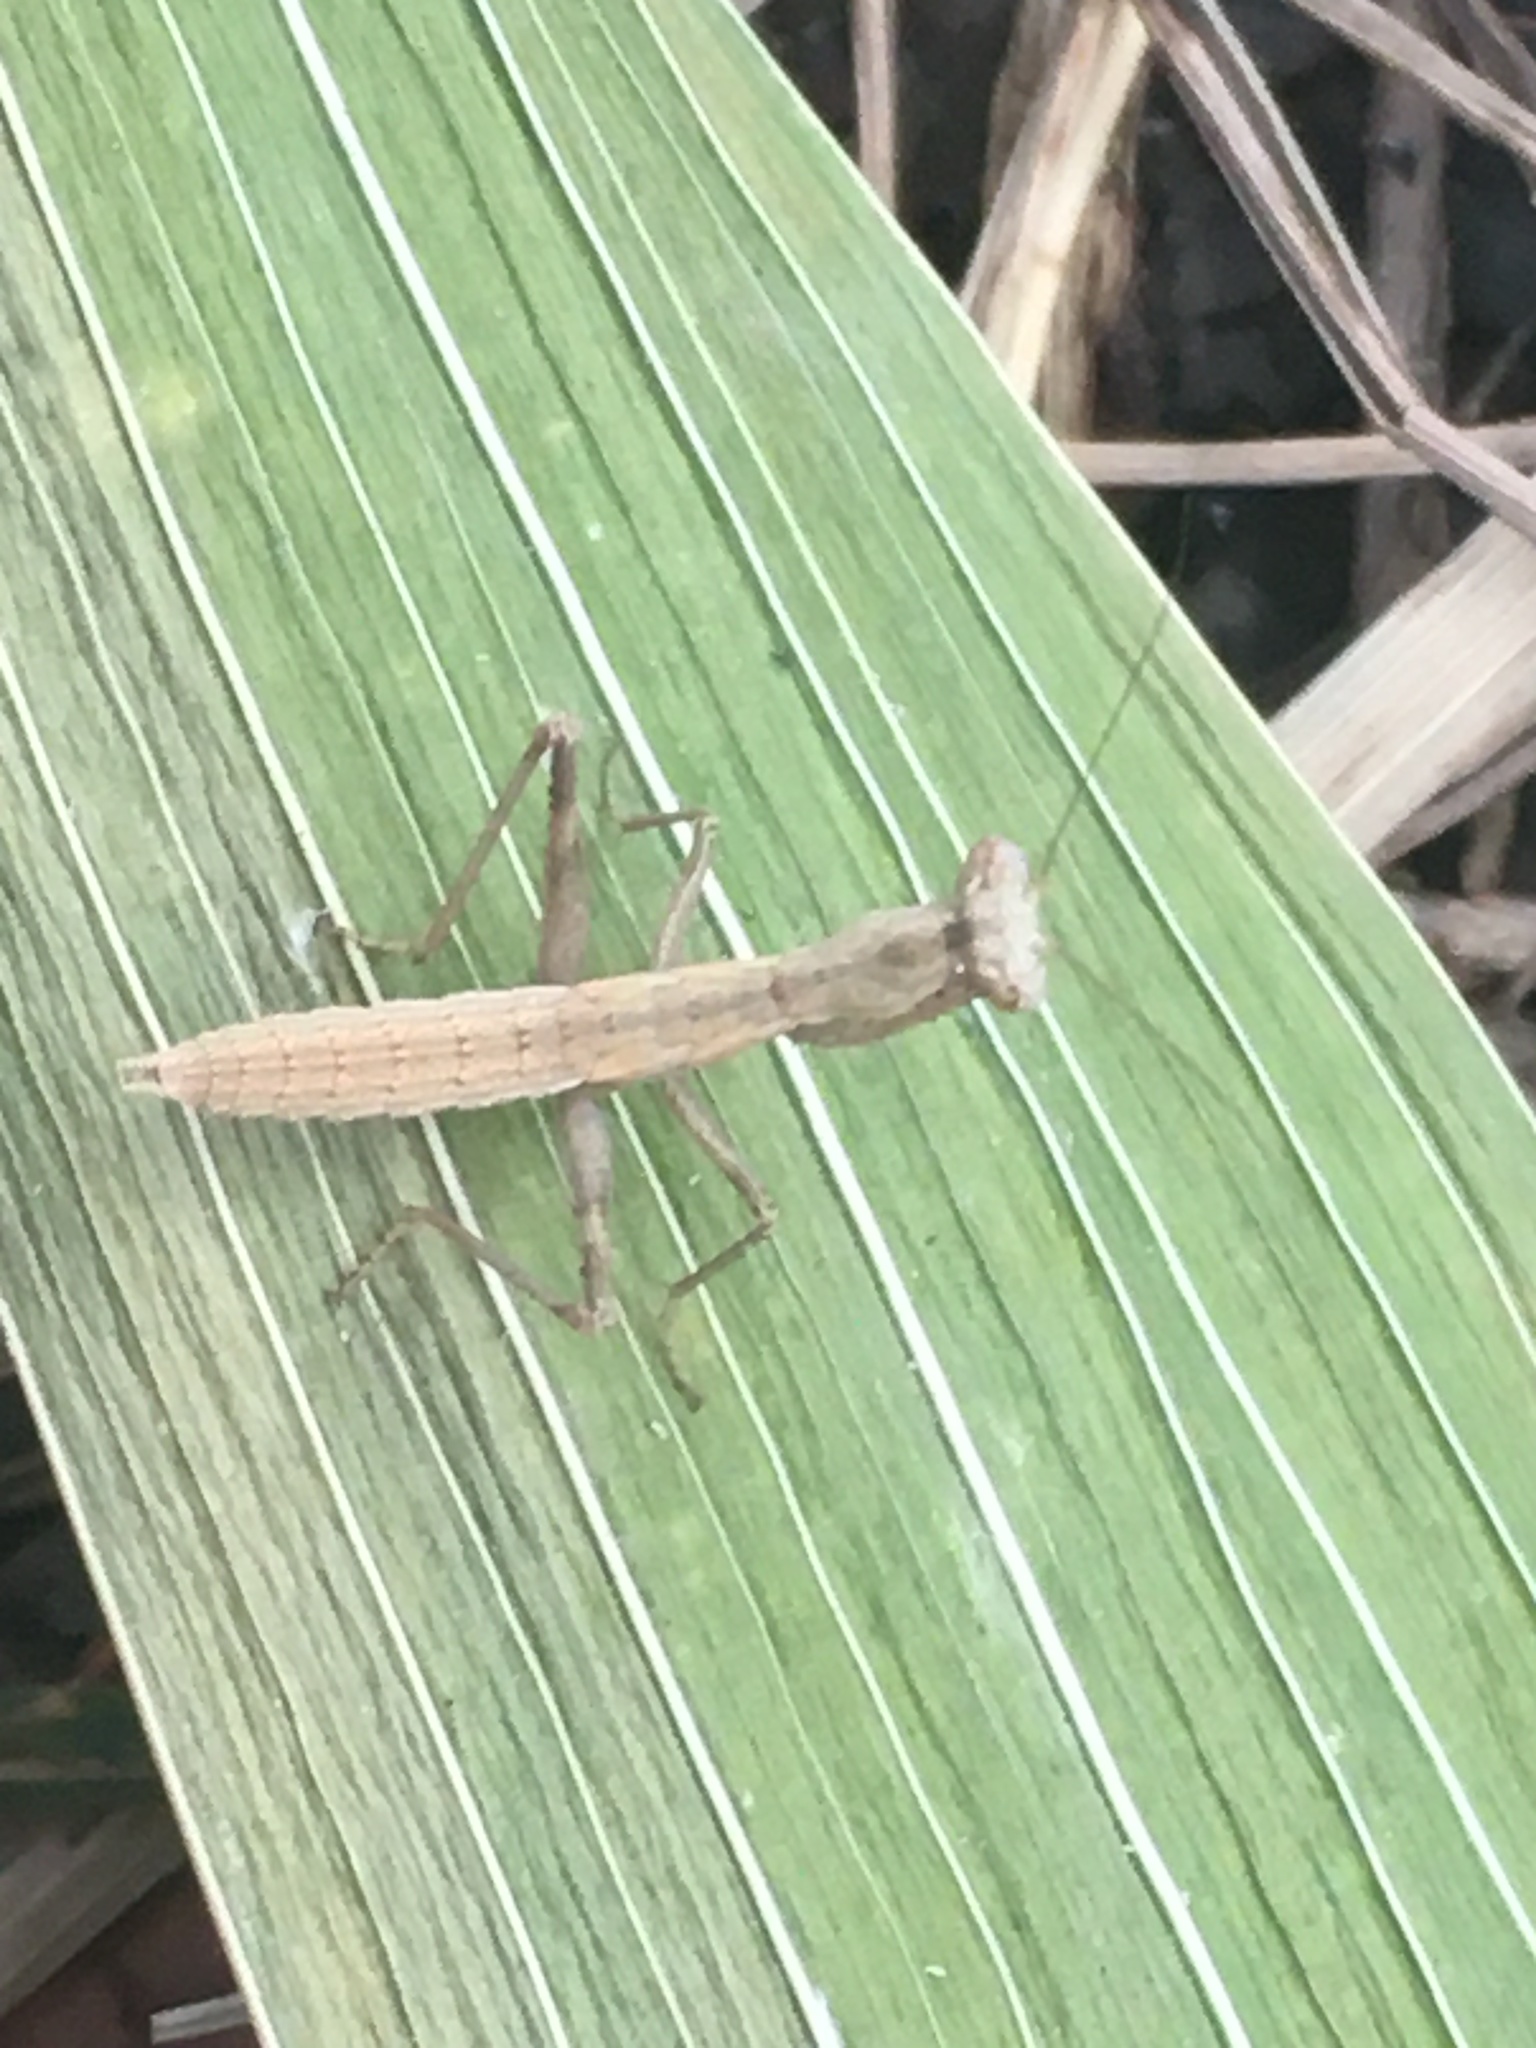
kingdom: Animalia
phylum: Arthropoda
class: Insecta
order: Mantodea
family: Amelidae
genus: Ameles
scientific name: Ameles heldreichi
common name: Heldreich's dwarf mantis
